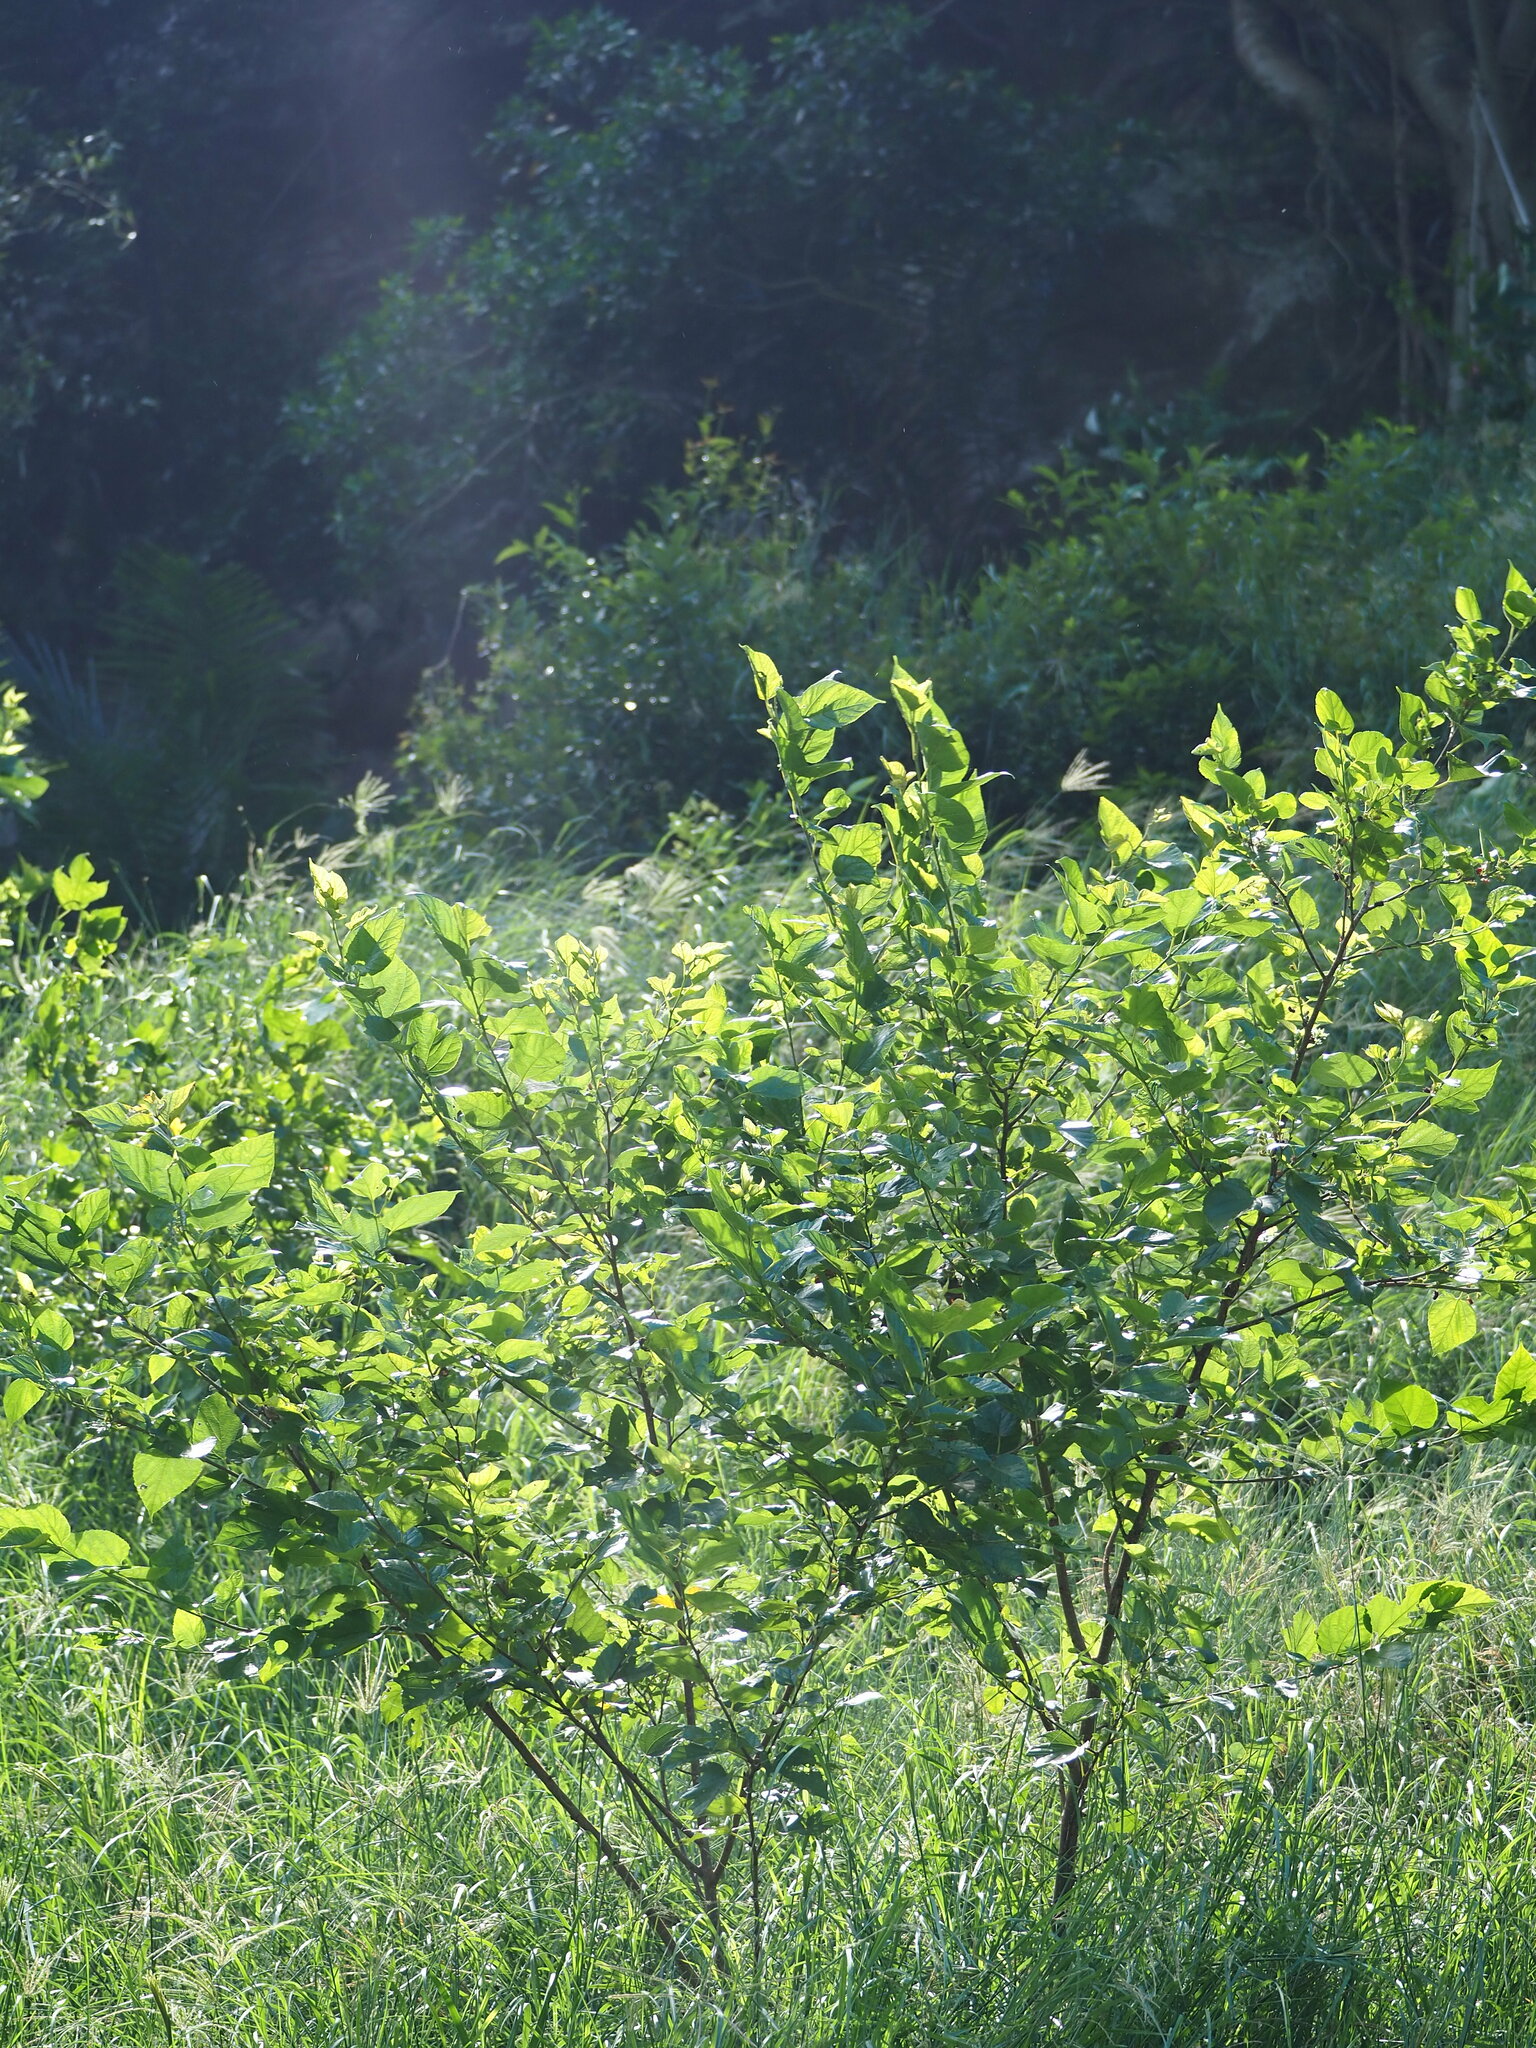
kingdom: Plantae
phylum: Tracheophyta
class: Magnoliopsida
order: Rosales
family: Moraceae
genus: Morus
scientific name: Morus indica
